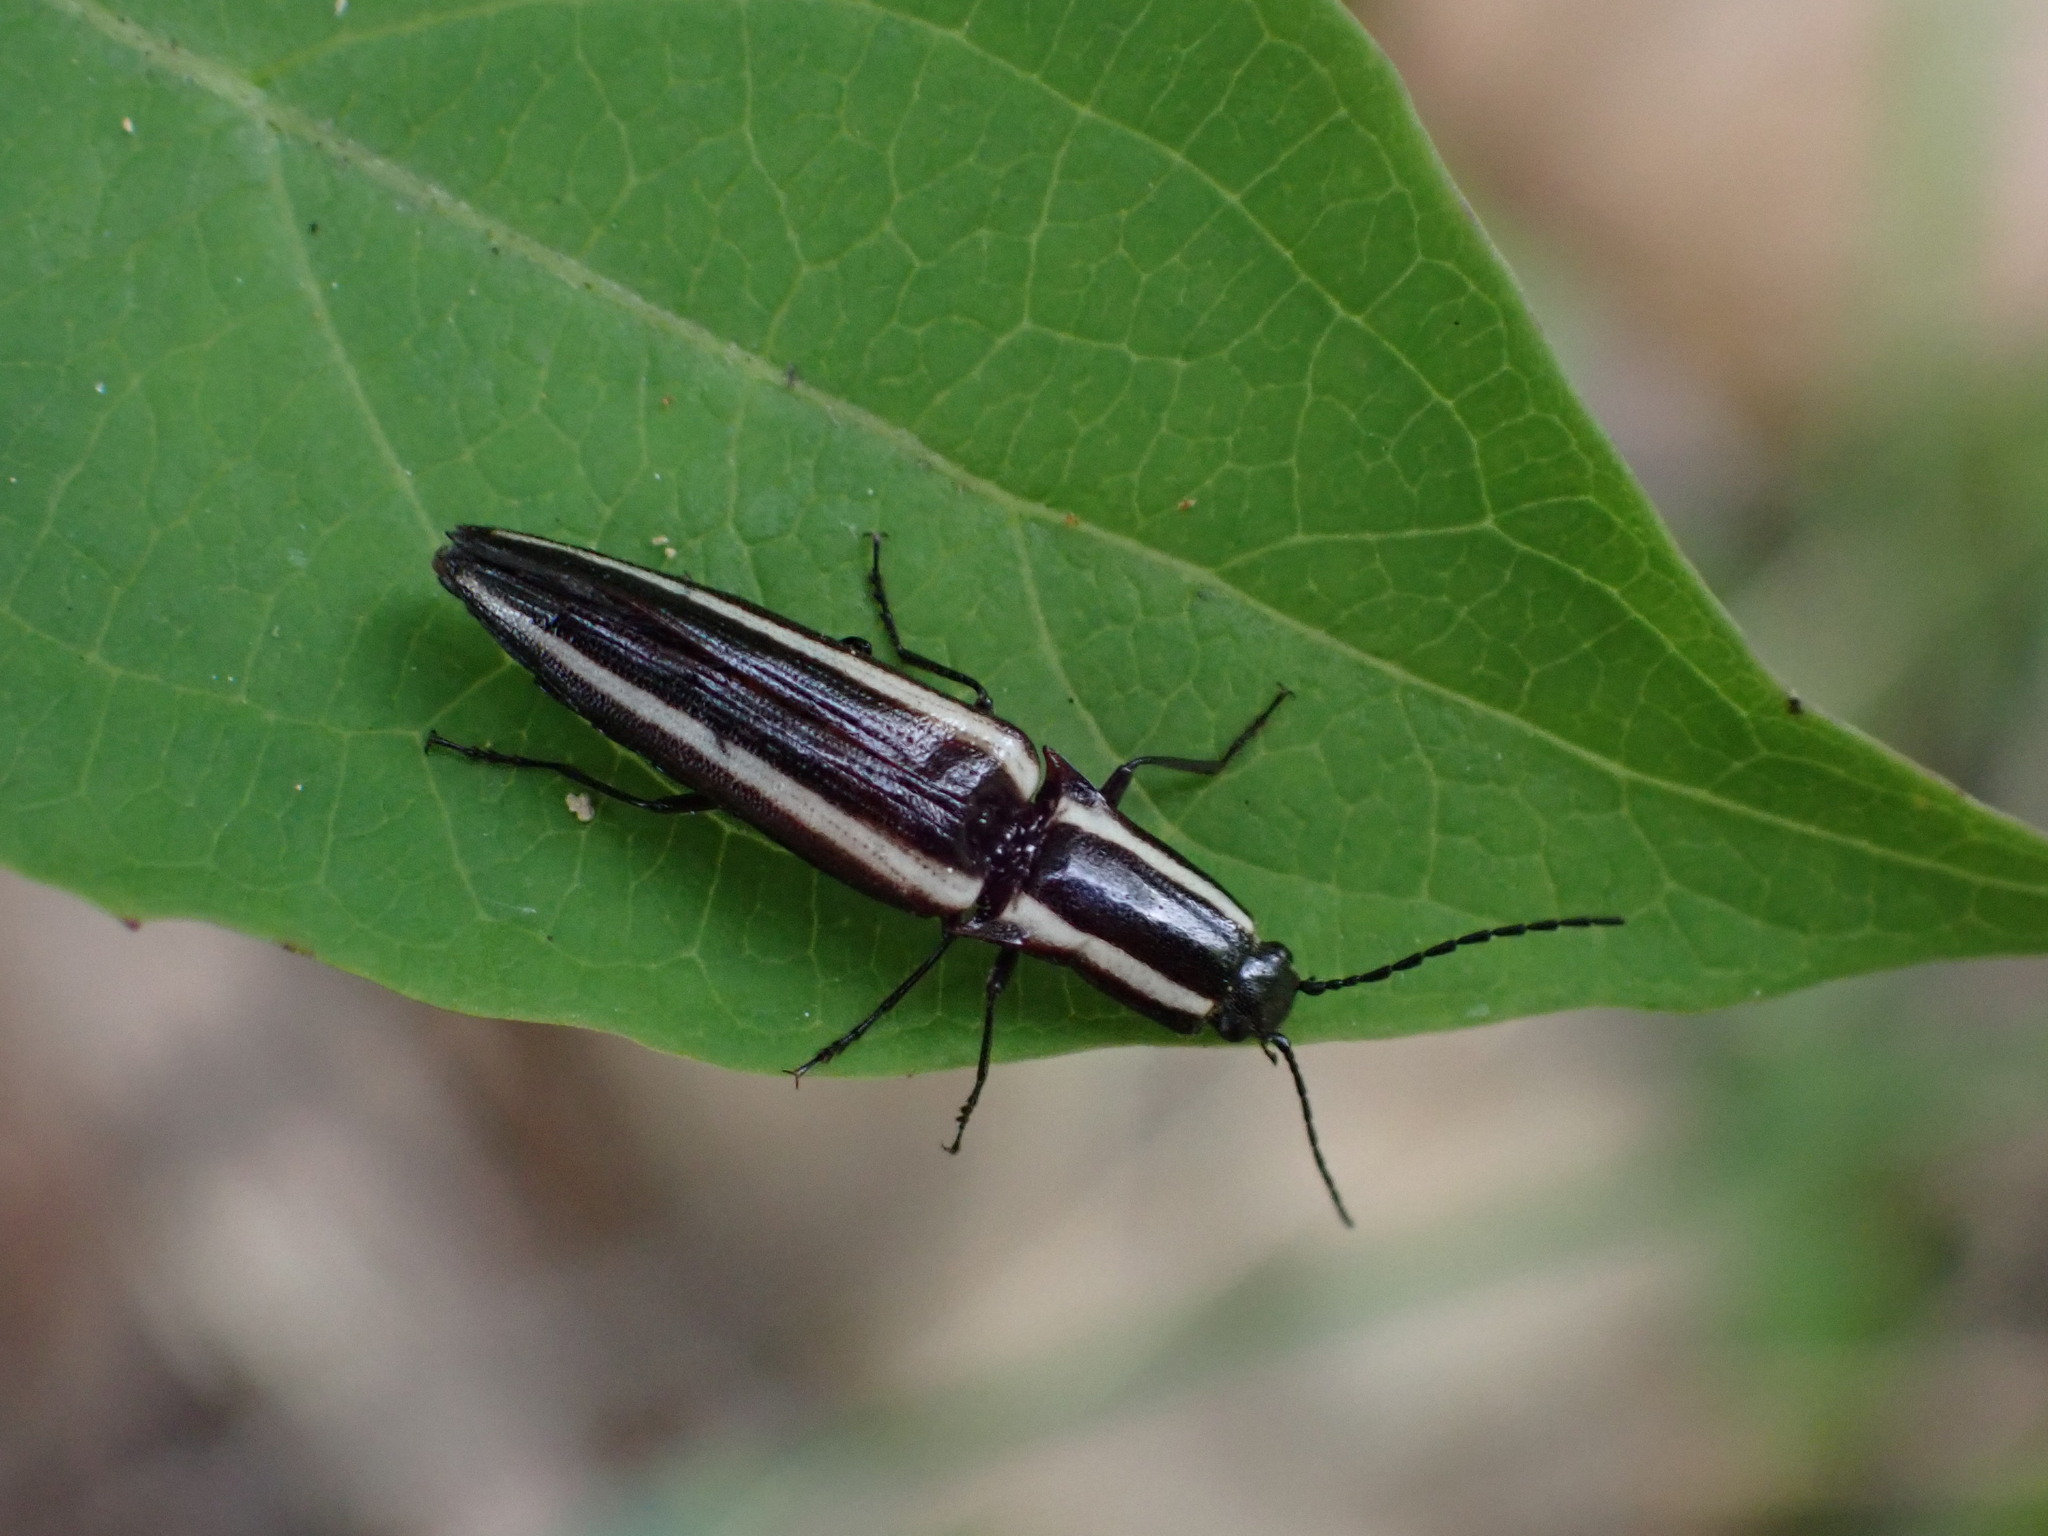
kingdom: Animalia
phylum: Arthropoda
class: Insecta
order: Coleoptera
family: Elateridae
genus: Metablax
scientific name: Metablax
